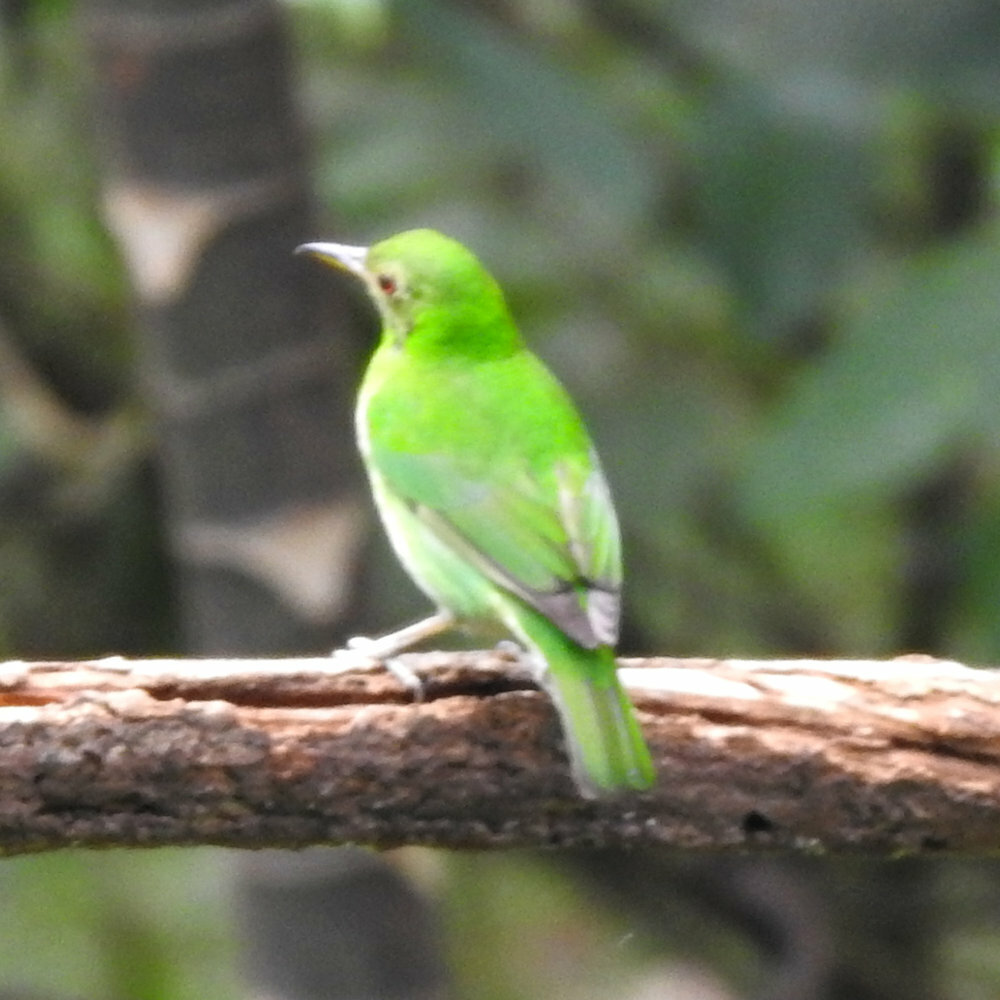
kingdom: Animalia
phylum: Chordata
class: Aves
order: Passeriformes
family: Thraupidae
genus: Chlorophanes
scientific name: Chlorophanes spiza
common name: Green honeycreeper
